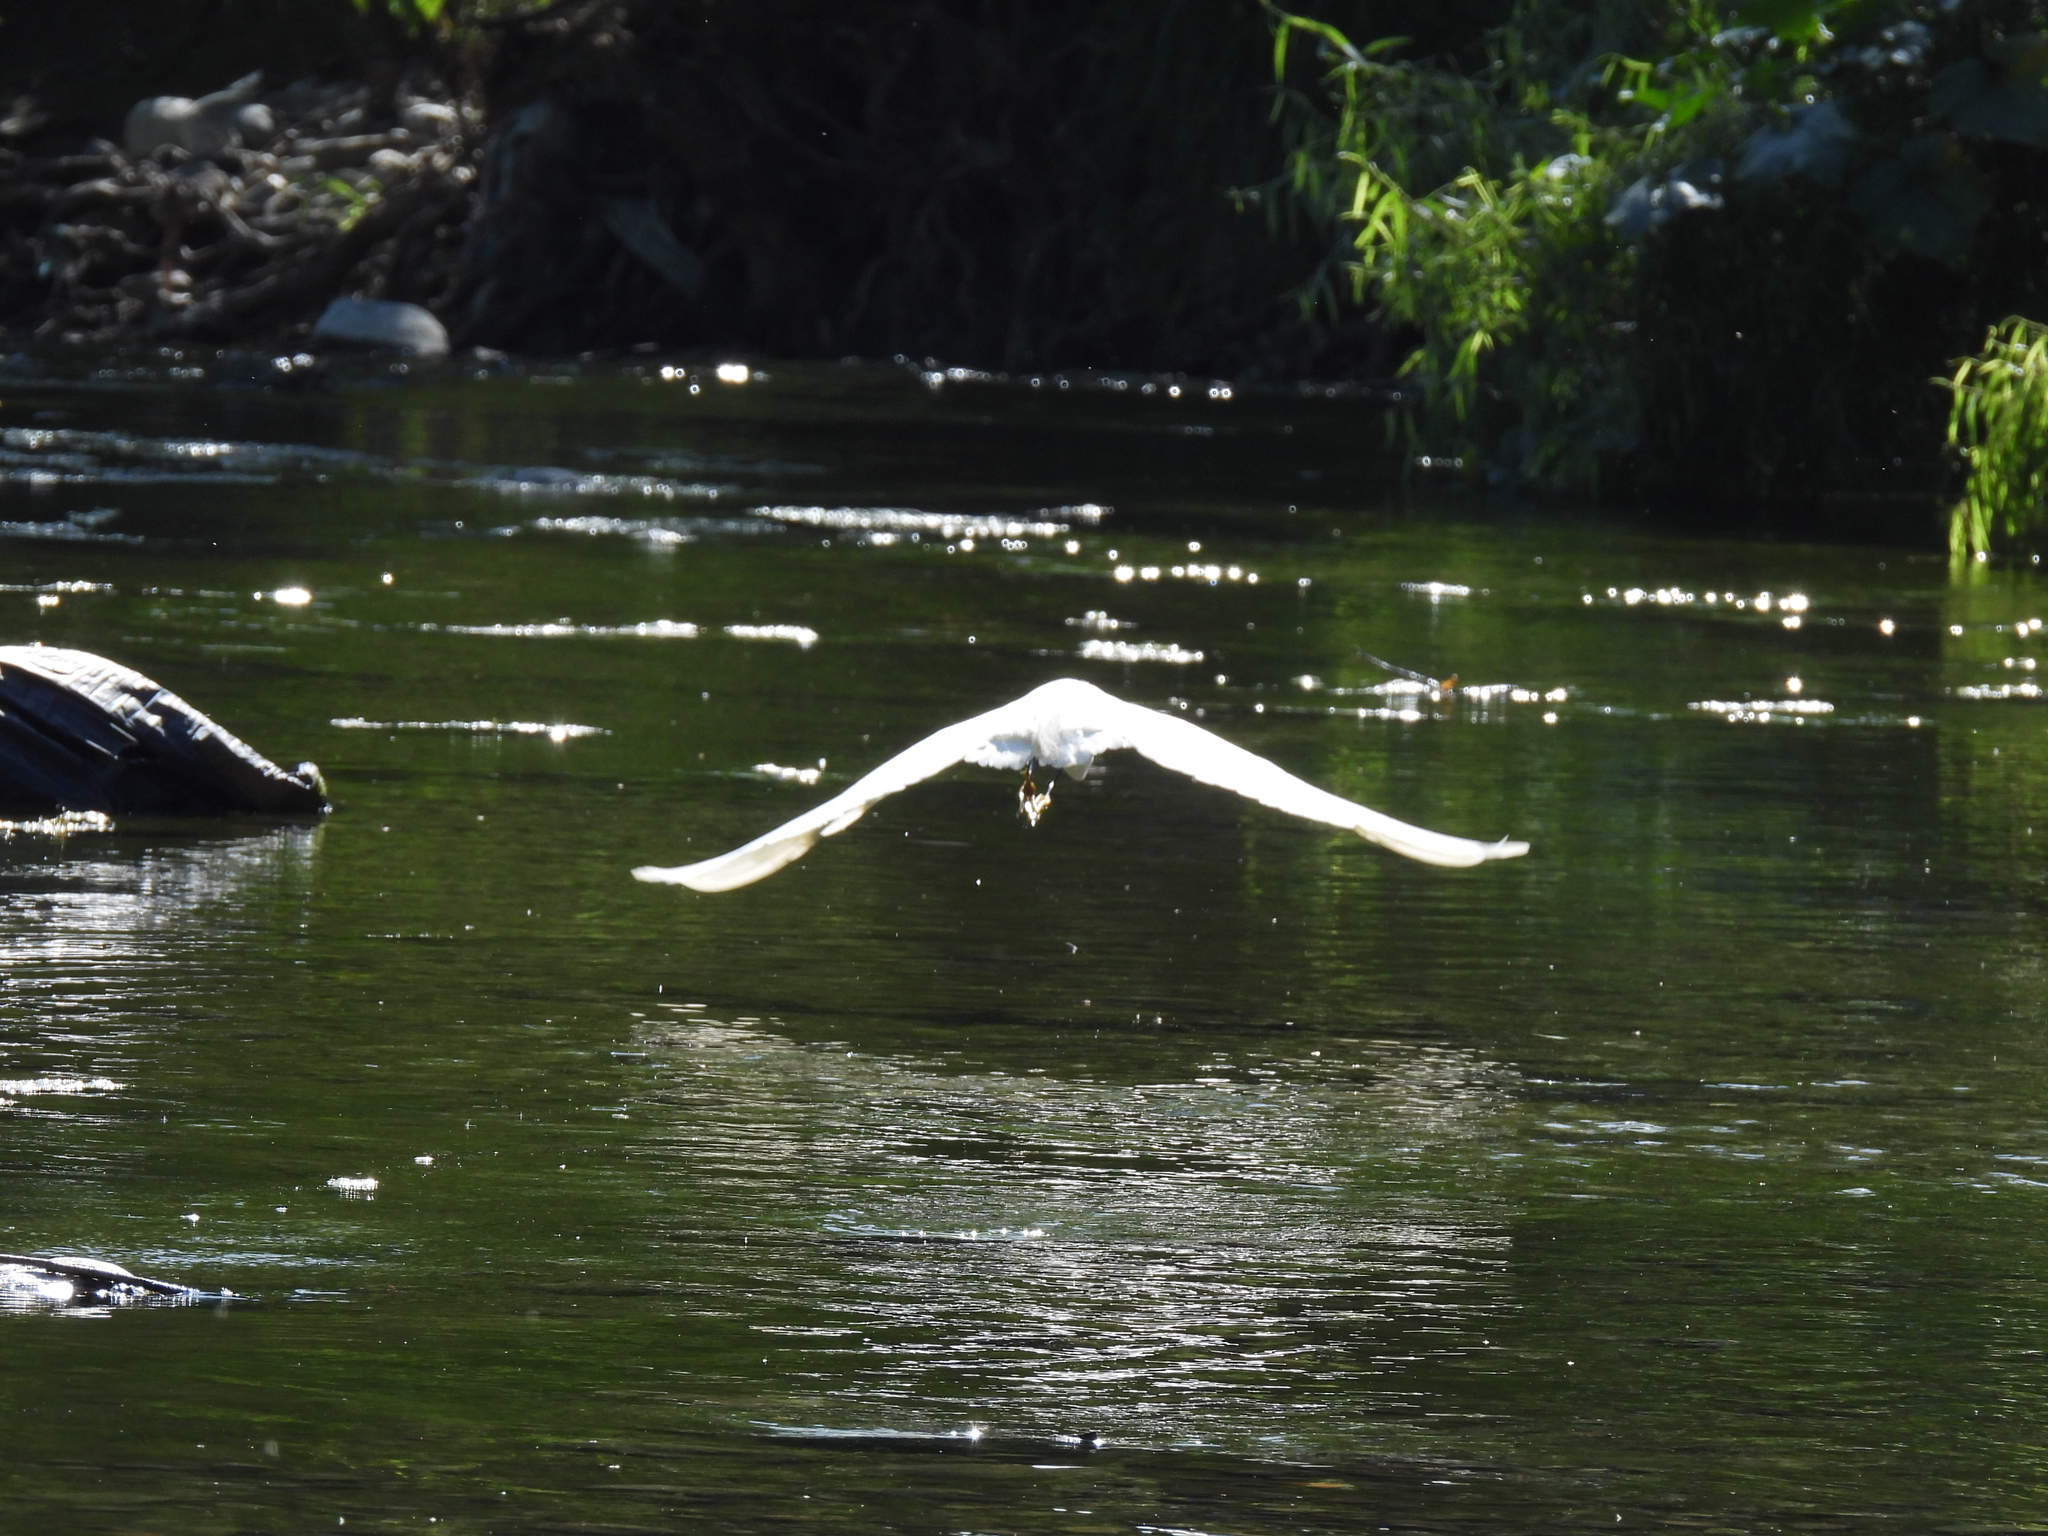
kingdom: Animalia
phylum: Chordata
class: Aves
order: Pelecaniformes
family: Ardeidae
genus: Egretta
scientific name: Egretta thula
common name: Snowy egret
